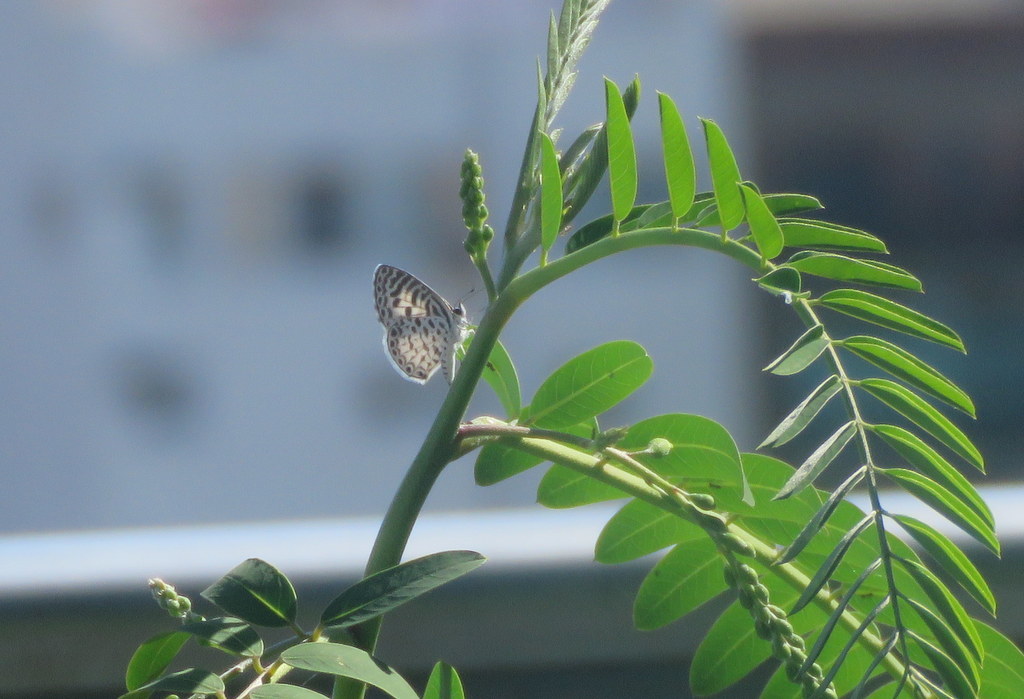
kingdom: Animalia
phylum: Arthropoda
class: Insecta
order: Lepidoptera
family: Lycaenidae
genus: Leptotes
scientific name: Leptotes cassius
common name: Cassius blue
